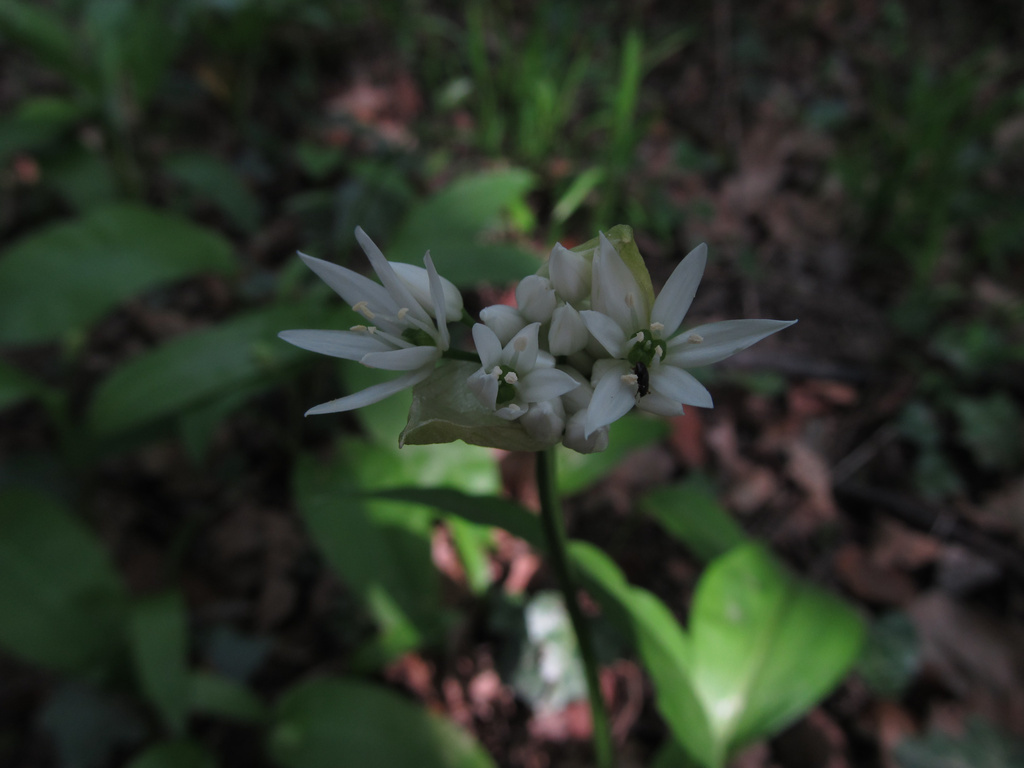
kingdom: Plantae
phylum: Tracheophyta
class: Liliopsida
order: Asparagales
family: Amaryllidaceae
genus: Allium
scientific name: Allium ursinum
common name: Ramsons
